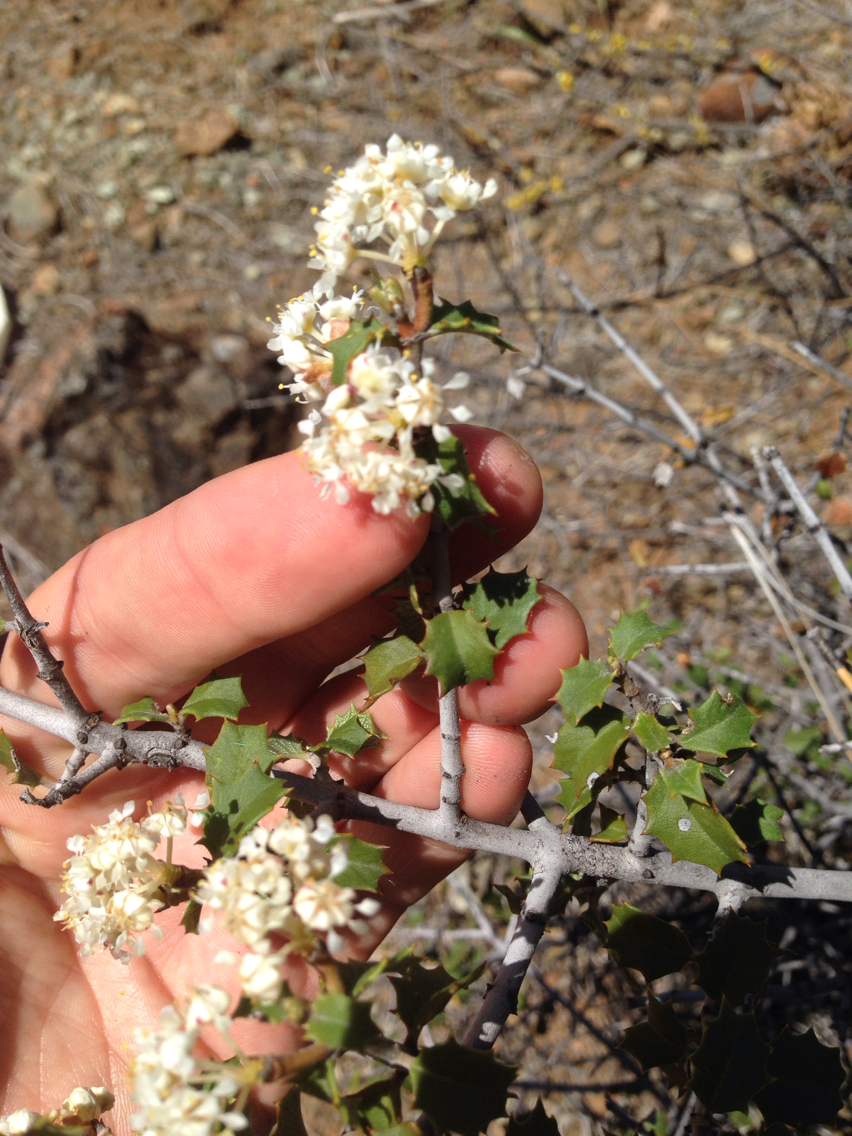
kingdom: Plantae
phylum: Tracheophyta
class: Magnoliopsida
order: Rosales
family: Rhamnaceae
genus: Ceanothus
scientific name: Ceanothus jepsonii
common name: Muskbrush
